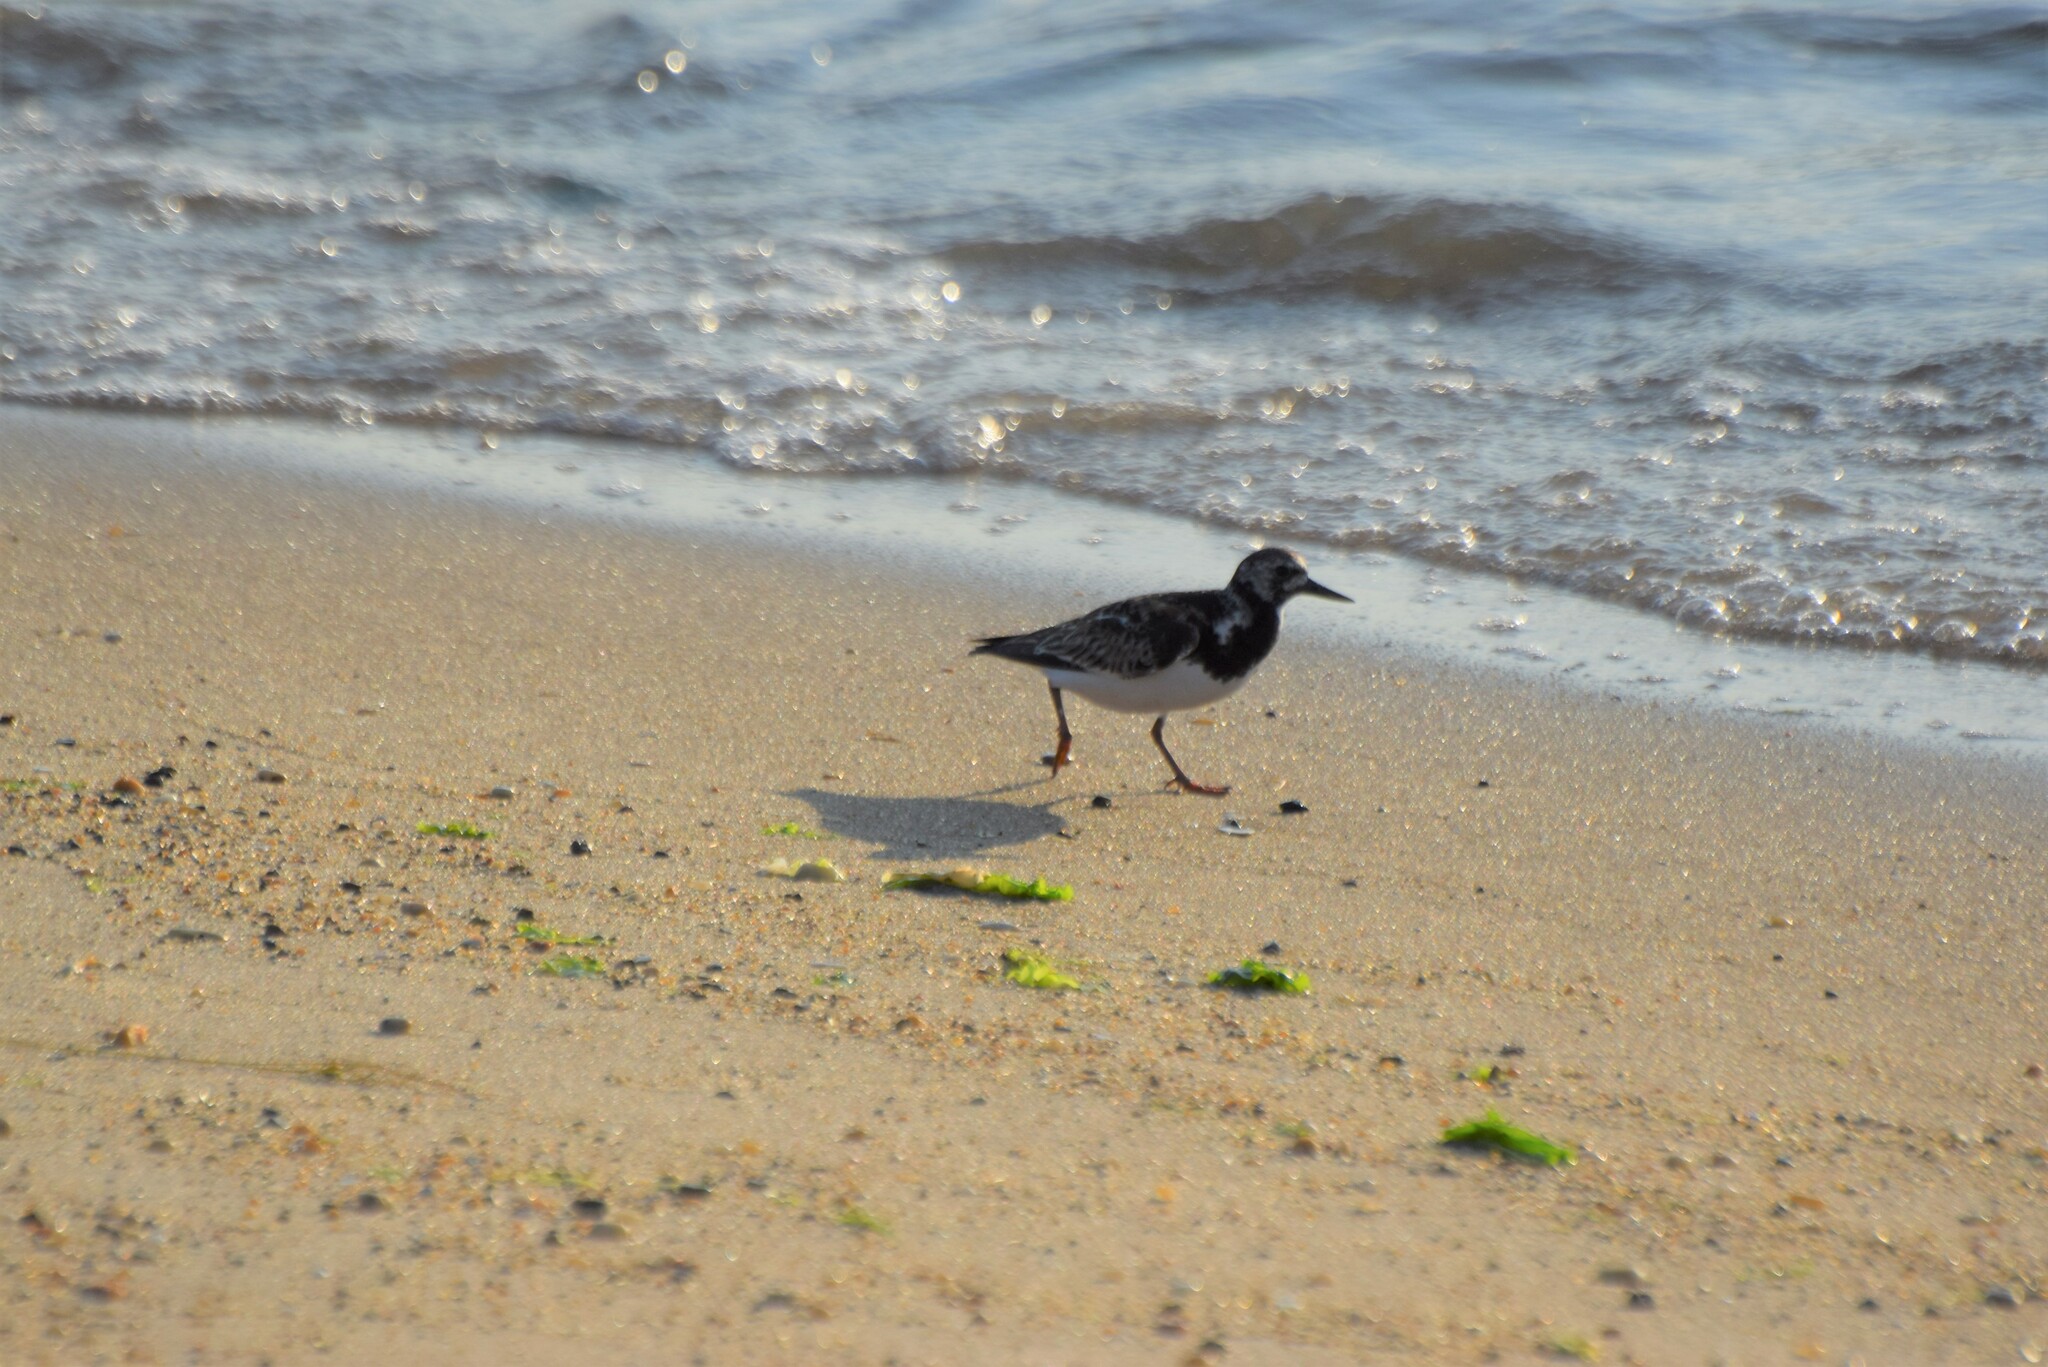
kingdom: Animalia
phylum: Chordata
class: Aves
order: Charadriiformes
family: Scolopacidae
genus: Arenaria
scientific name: Arenaria interpres
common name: Ruddy turnstone
